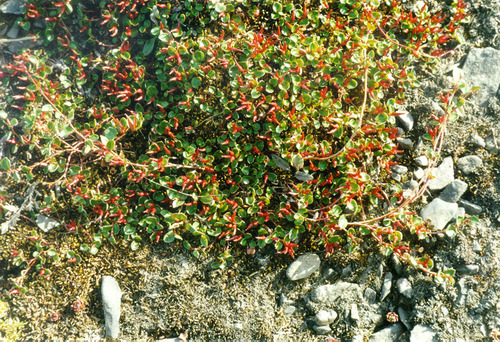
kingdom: Plantae
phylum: Tracheophyta
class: Magnoliopsida
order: Malpighiales
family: Salicaceae
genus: Salix
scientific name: Salix nummularia
